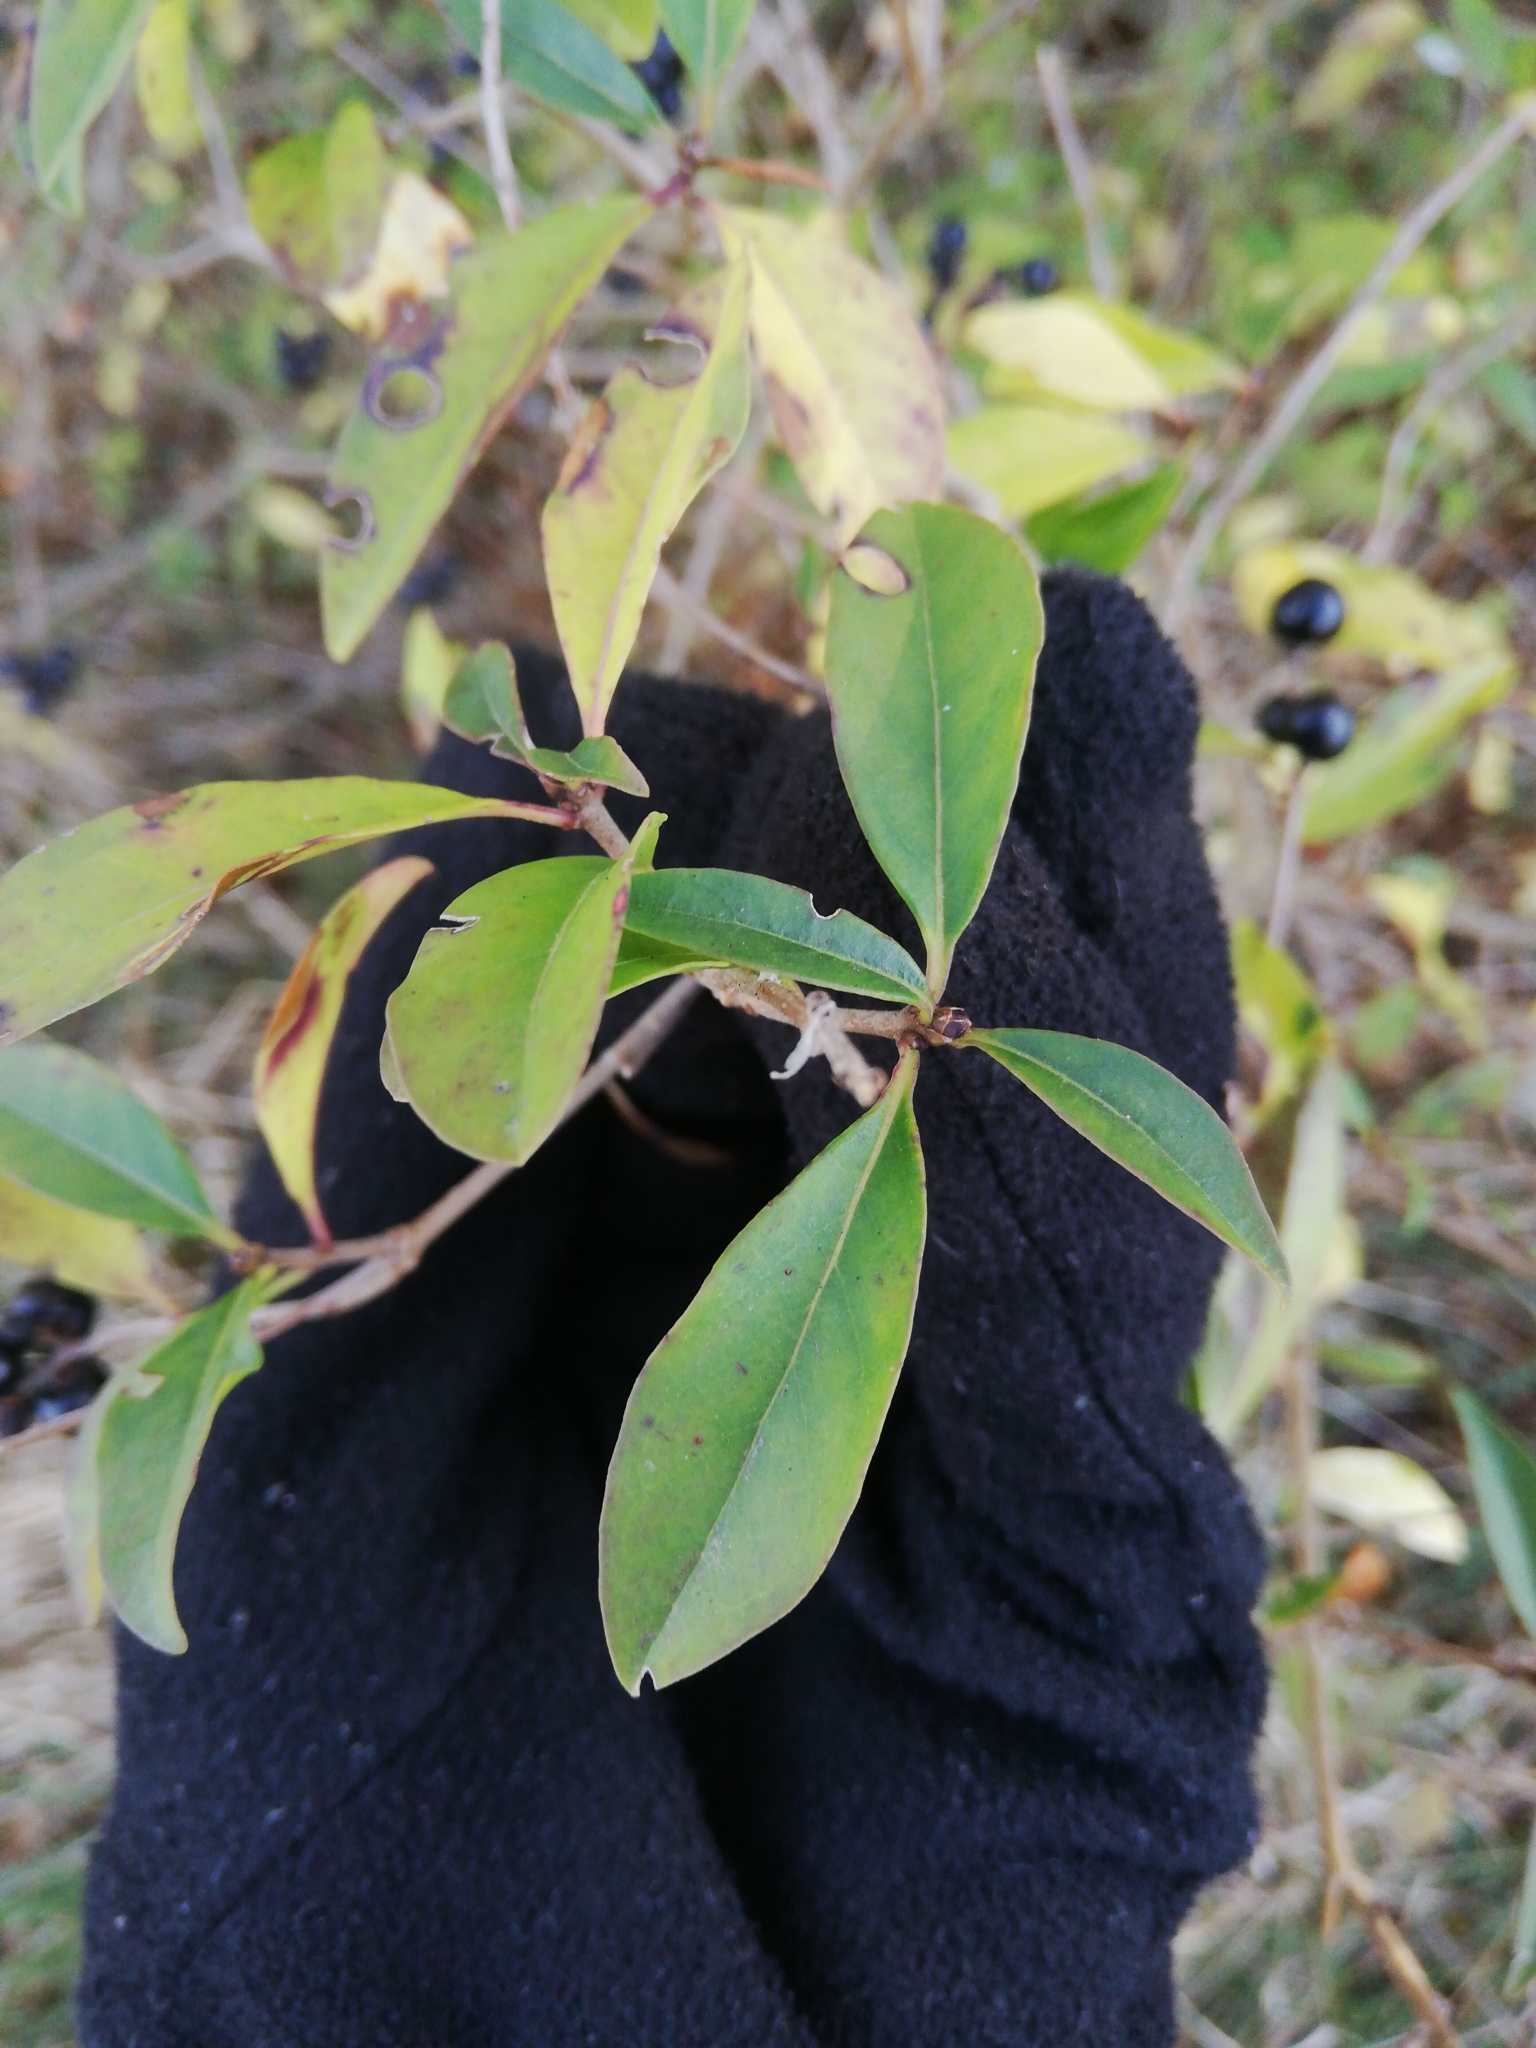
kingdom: Plantae
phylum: Tracheophyta
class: Magnoliopsida
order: Lamiales
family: Oleaceae
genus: Ligustrum
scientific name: Ligustrum vulgare
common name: Wild privet
